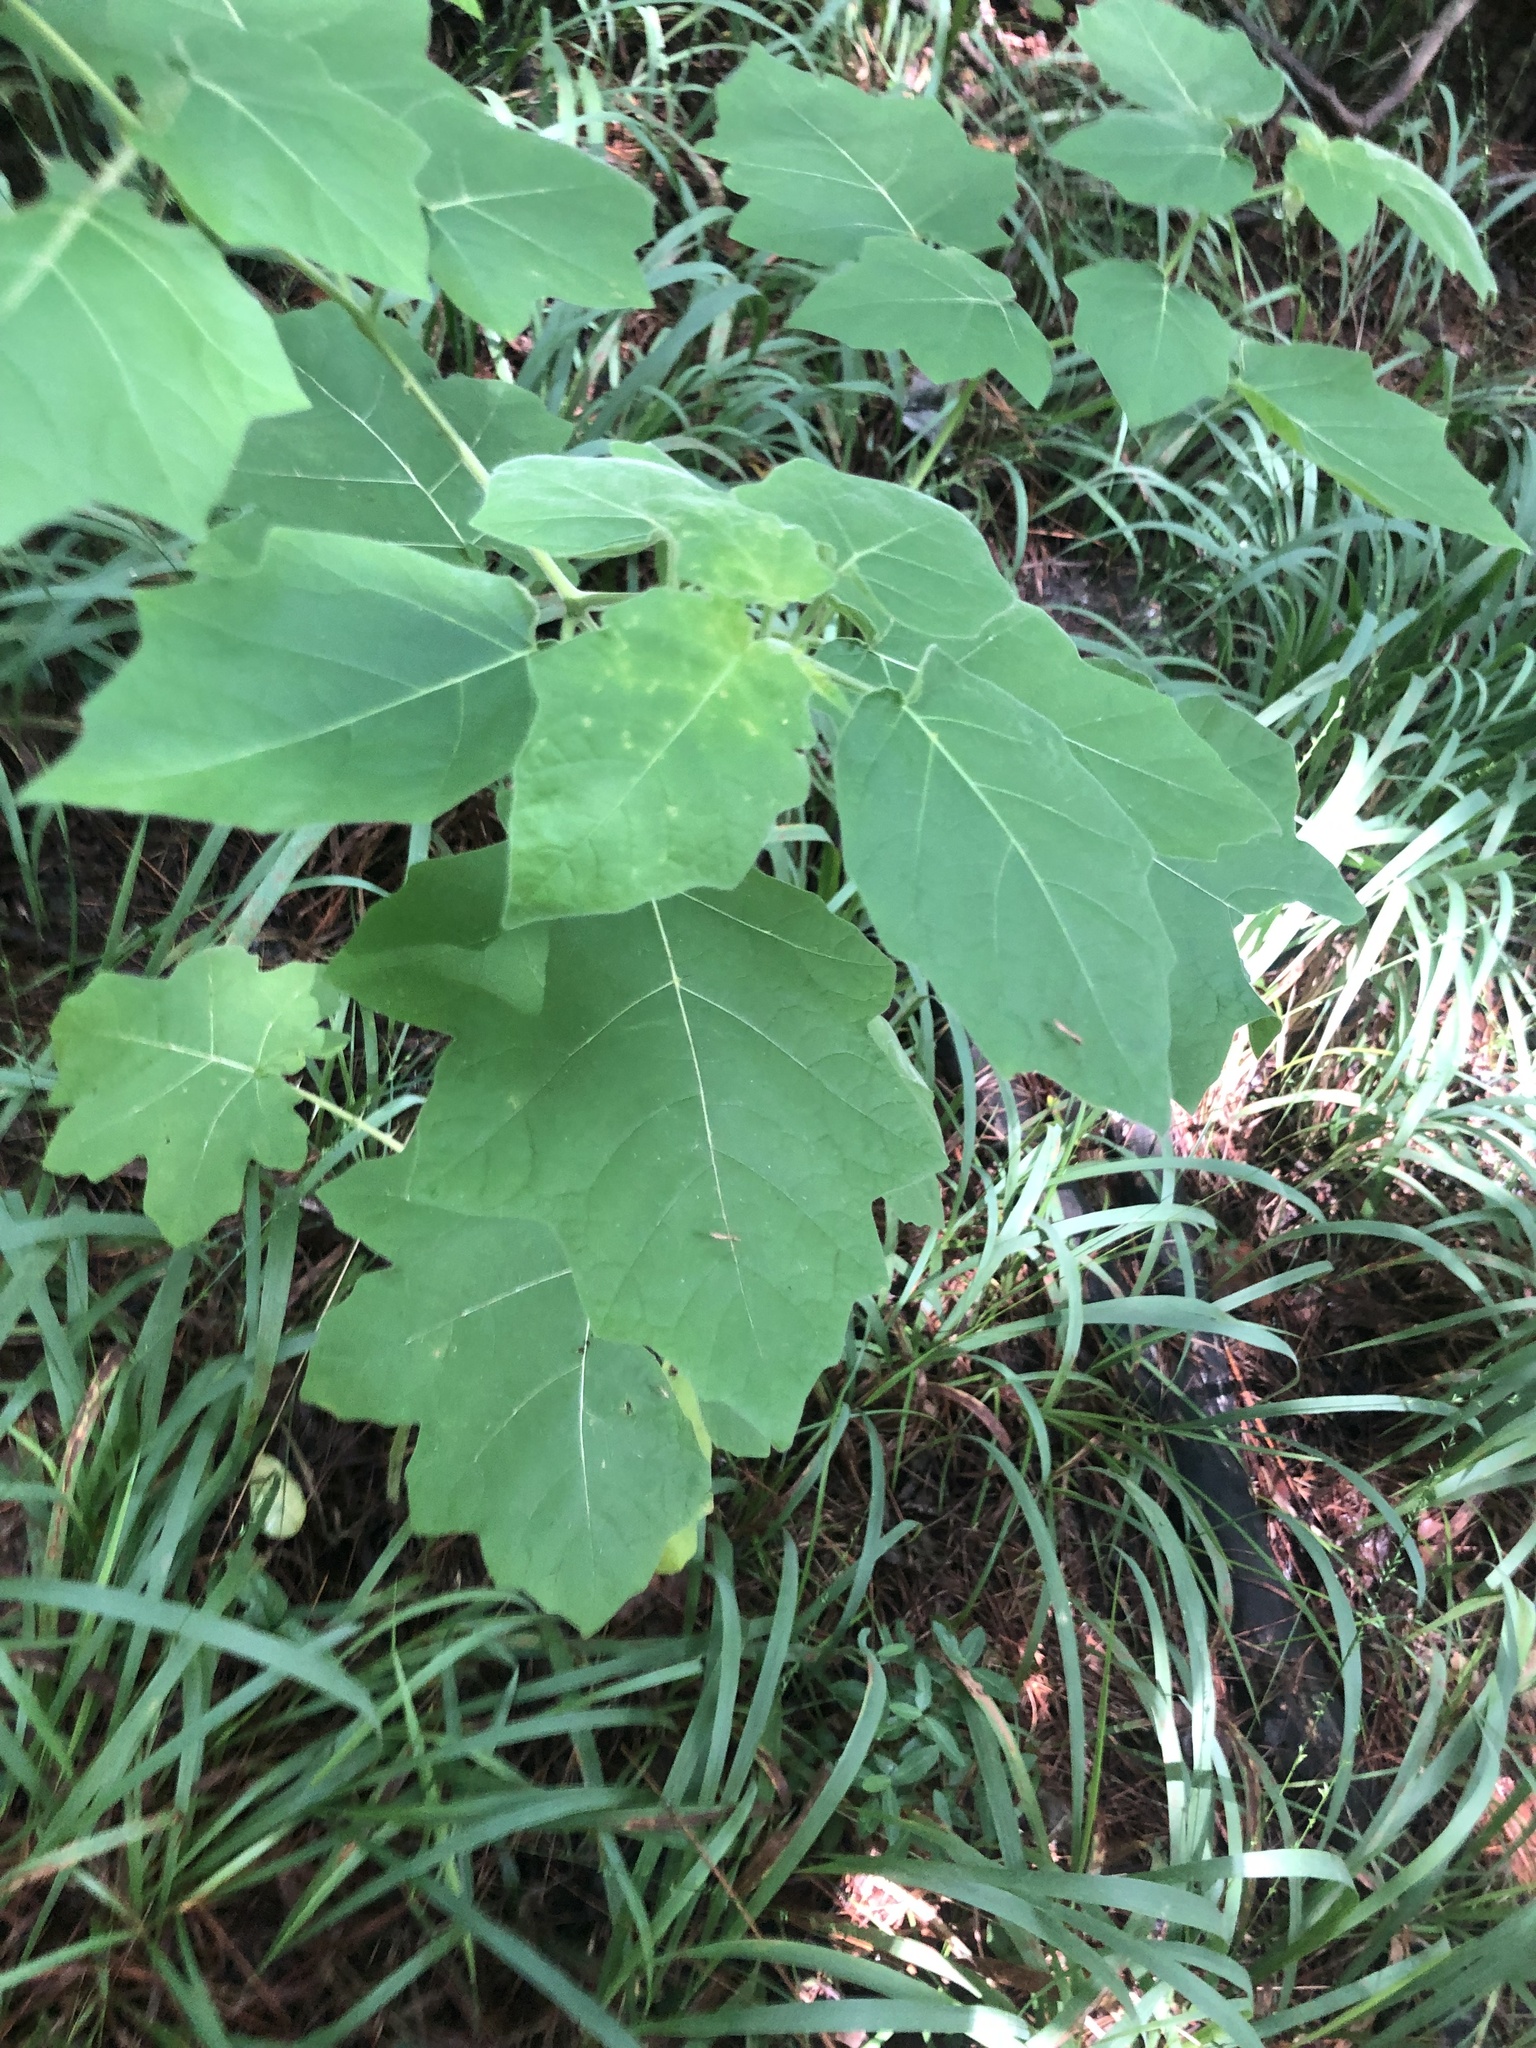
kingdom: Plantae
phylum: Tracheophyta
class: Magnoliopsida
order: Solanales
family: Solanaceae
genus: Solanum
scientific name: Solanum viarum
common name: Tropical soda apple
